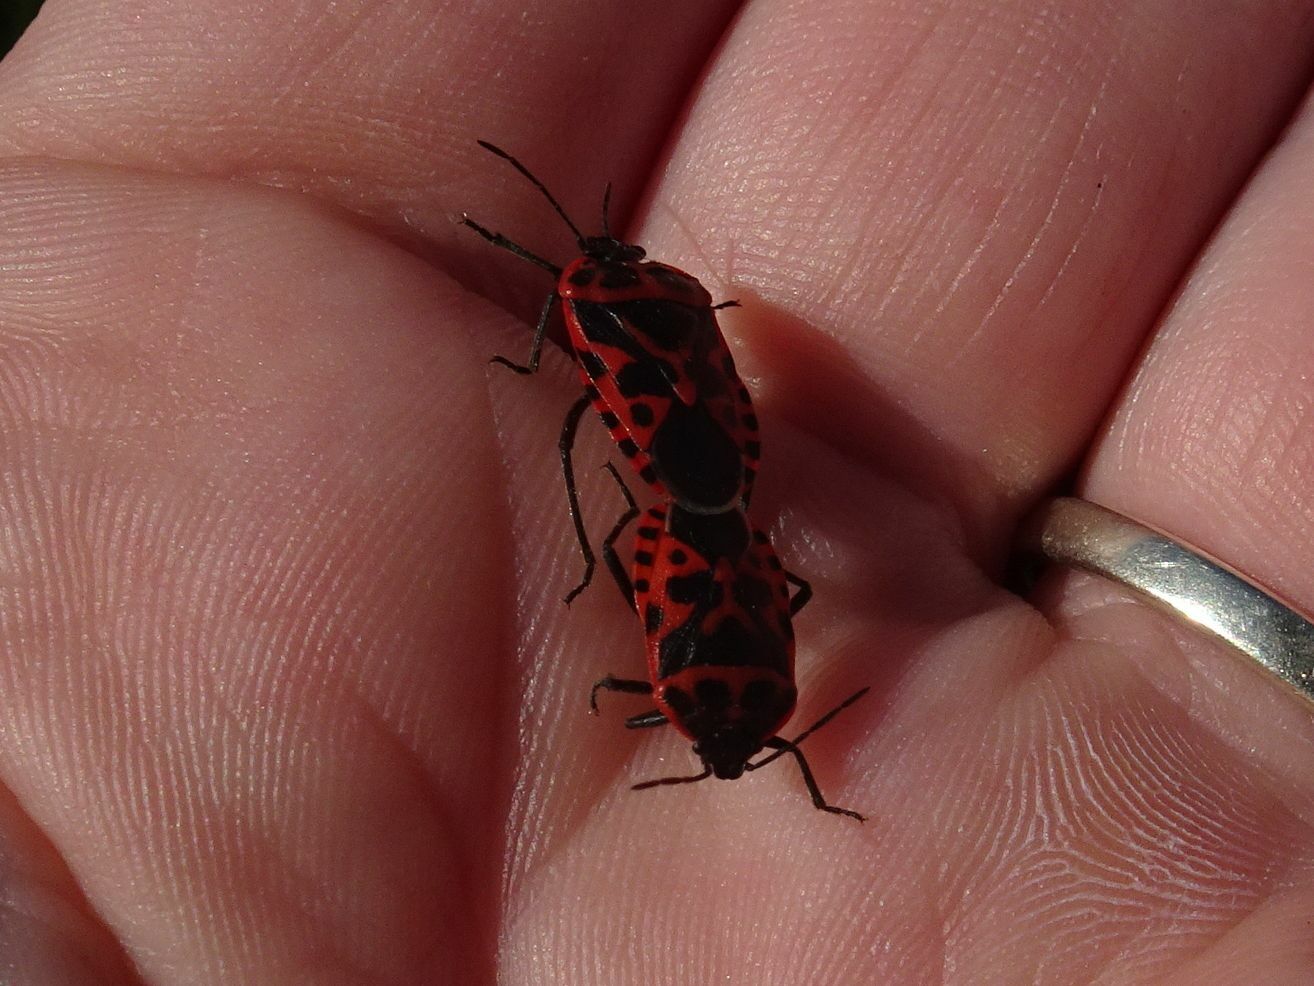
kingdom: Animalia
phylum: Arthropoda
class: Insecta
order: Hemiptera
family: Pentatomidae
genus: Eurydema
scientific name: Eurydema ventralis
